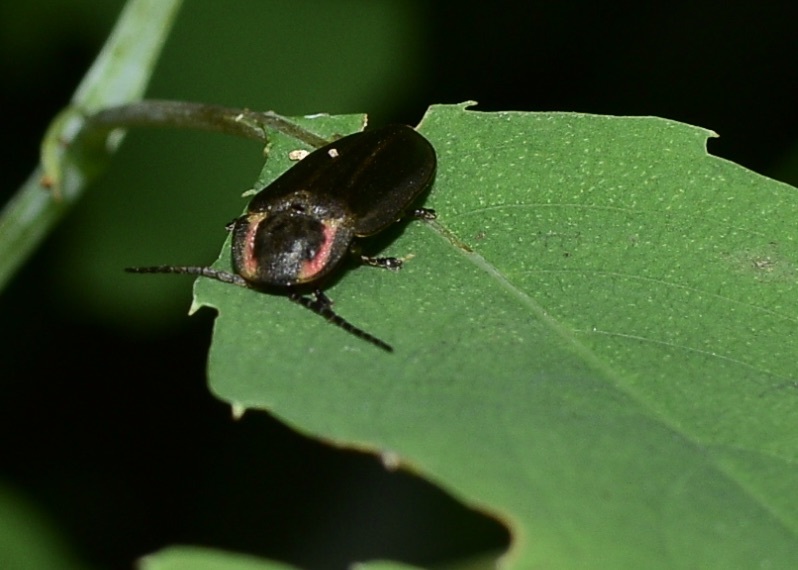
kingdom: Animalia
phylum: Arthropoda
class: Insecta
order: Coleoptera
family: Lampyridae
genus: Photinus
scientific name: Photinus corrusca
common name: Winter firefly
